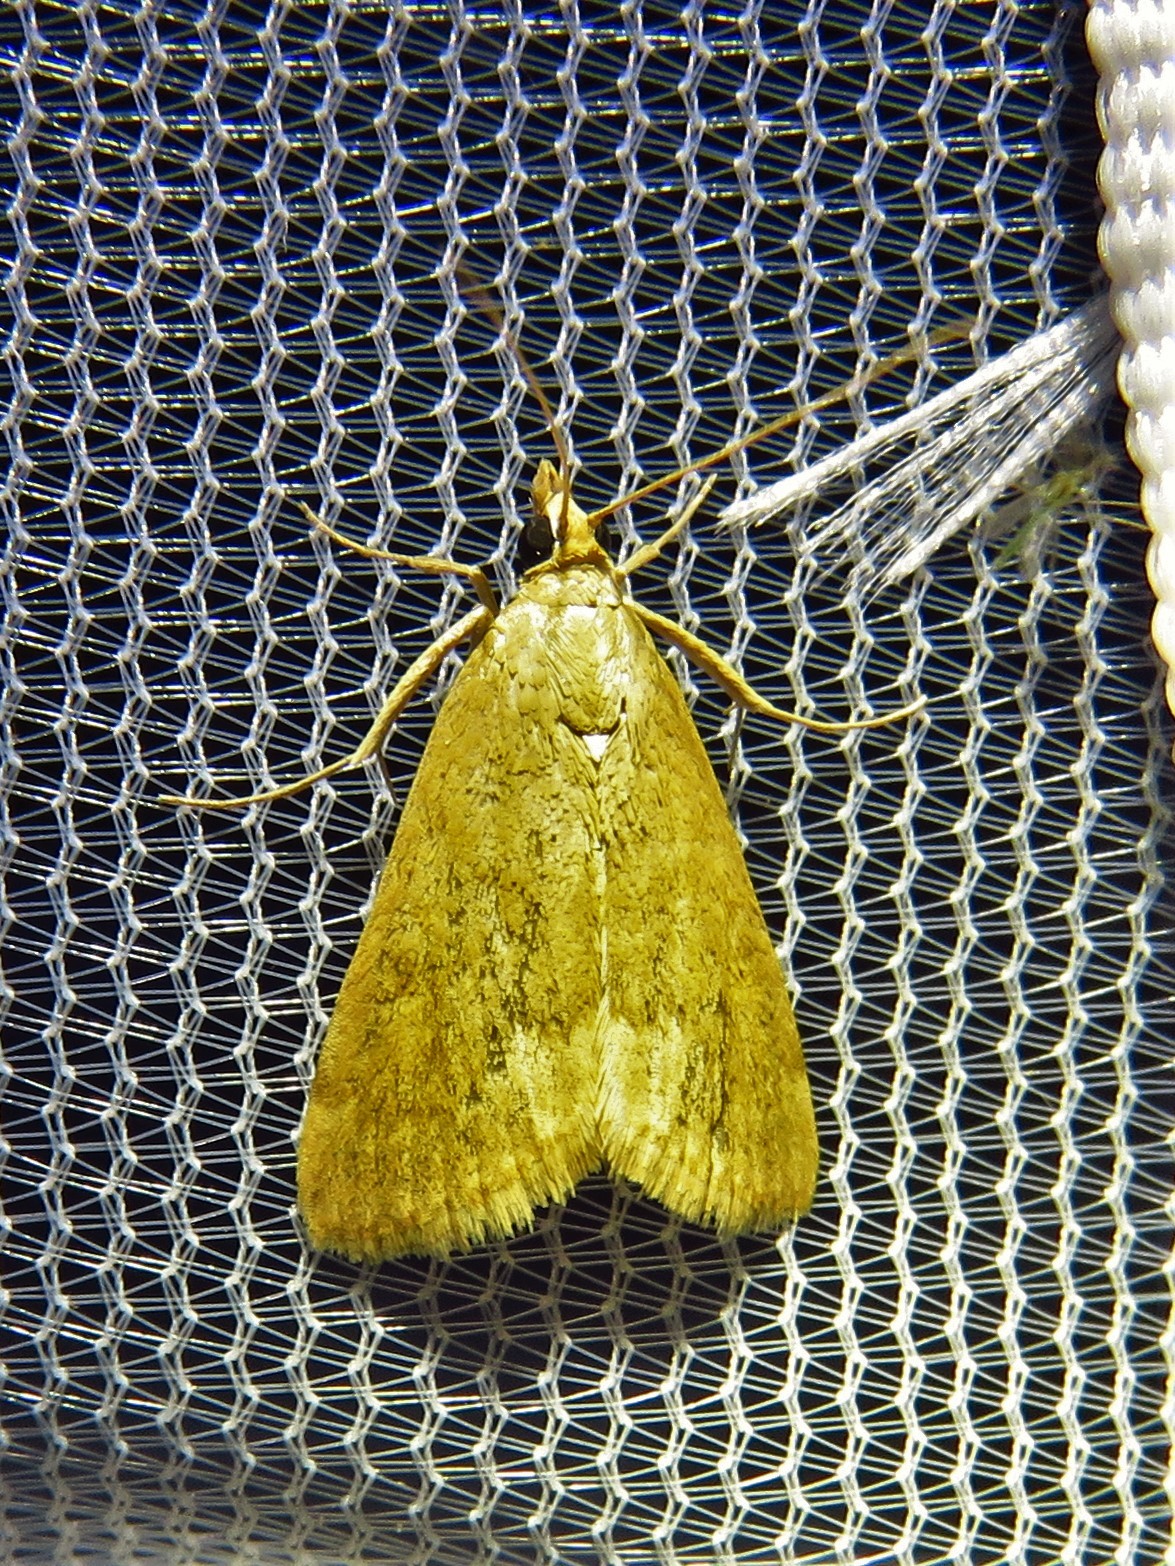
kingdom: Animalia
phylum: Arthropoda
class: Insecta
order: Lepidoptera
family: Crambidae
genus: Achyra
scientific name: Achyra rantalis
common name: Garden webworm
